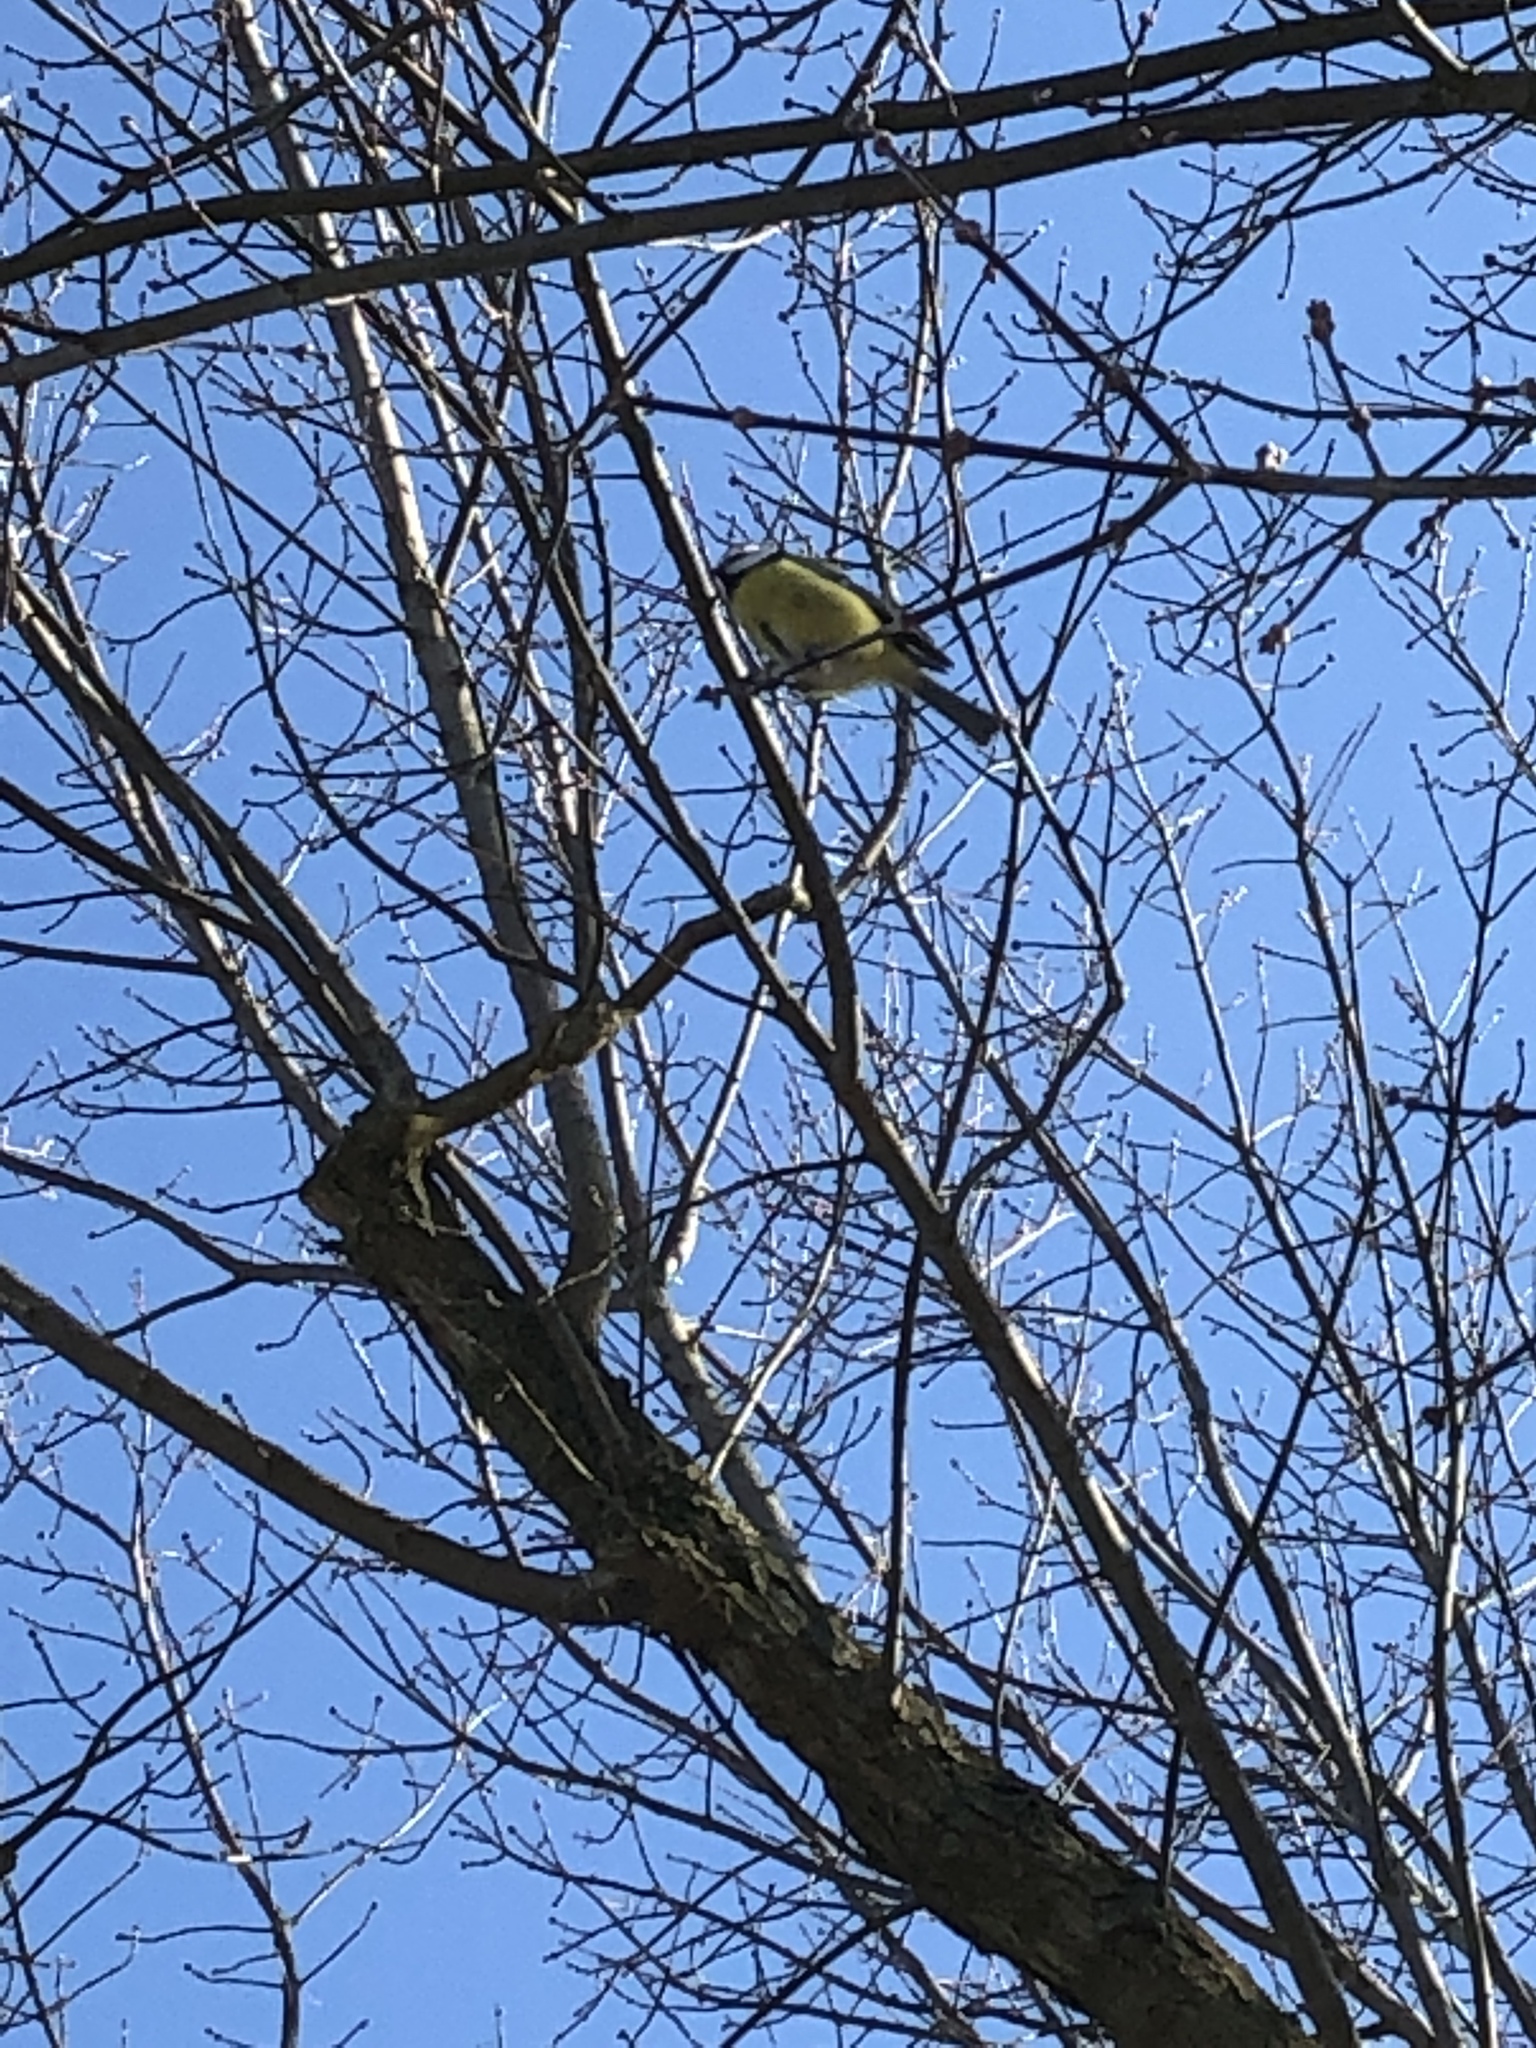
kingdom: Animalia
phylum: Chordata
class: Aves
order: Passeriformes
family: Paridae
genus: Cyanistes
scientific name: Cyanistes caeruleus
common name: Eurasian blue tit
